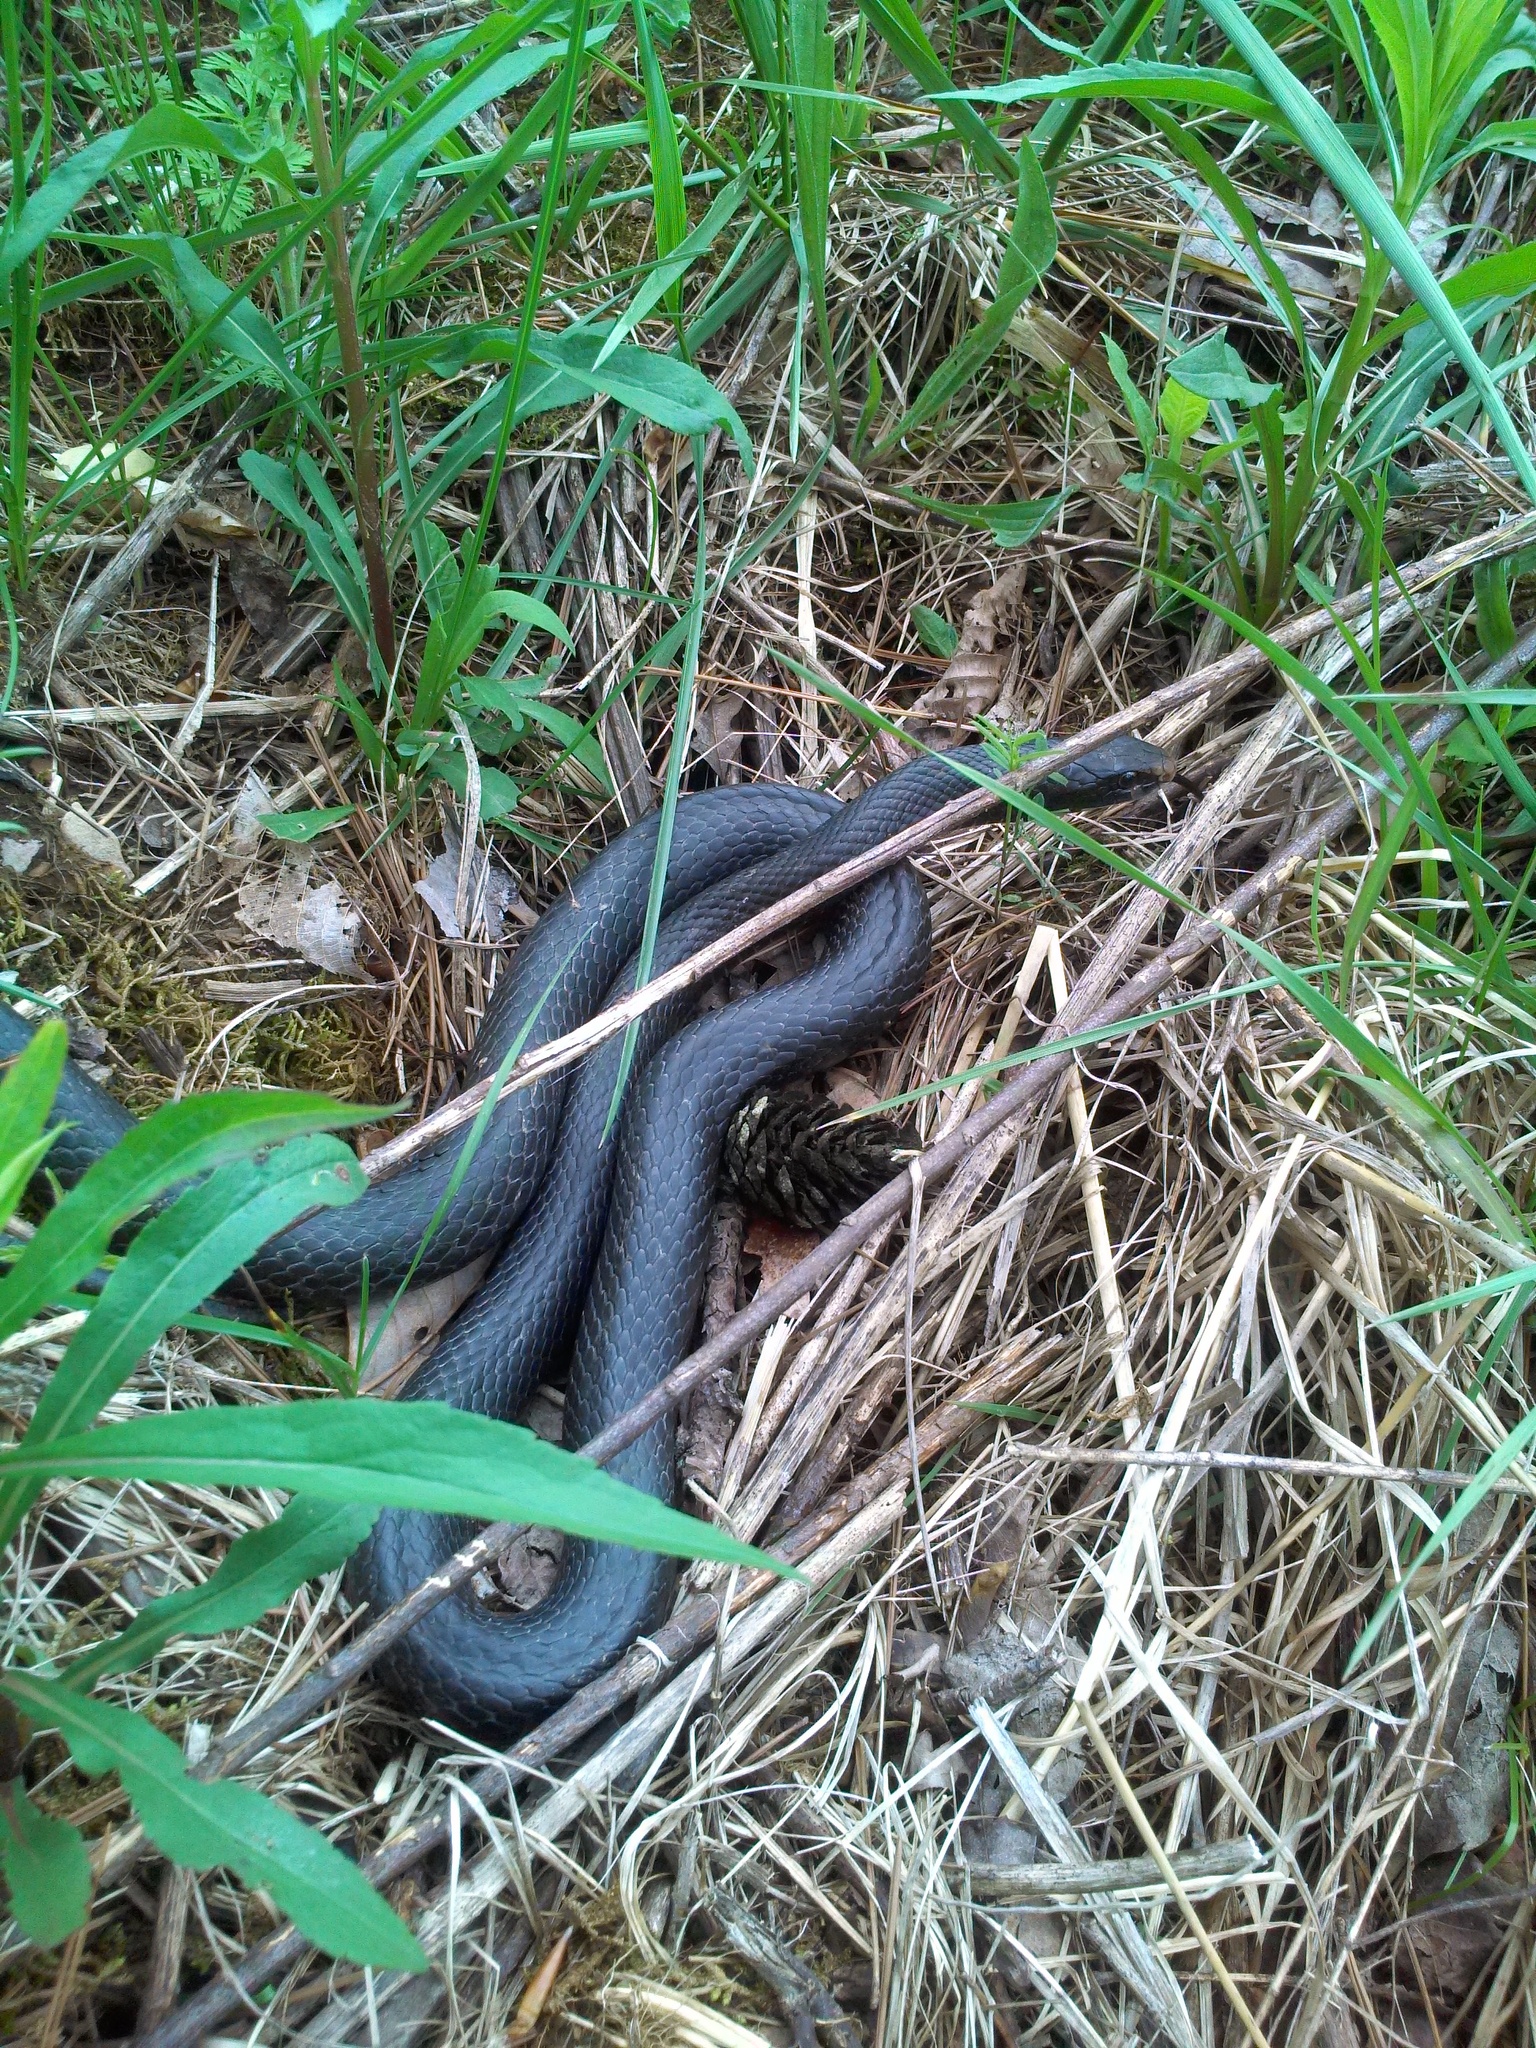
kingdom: Animalia
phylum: Chordata
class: Squamata
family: Colubridae
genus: Coluber
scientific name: Coluber constrictor
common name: Eastern racer
